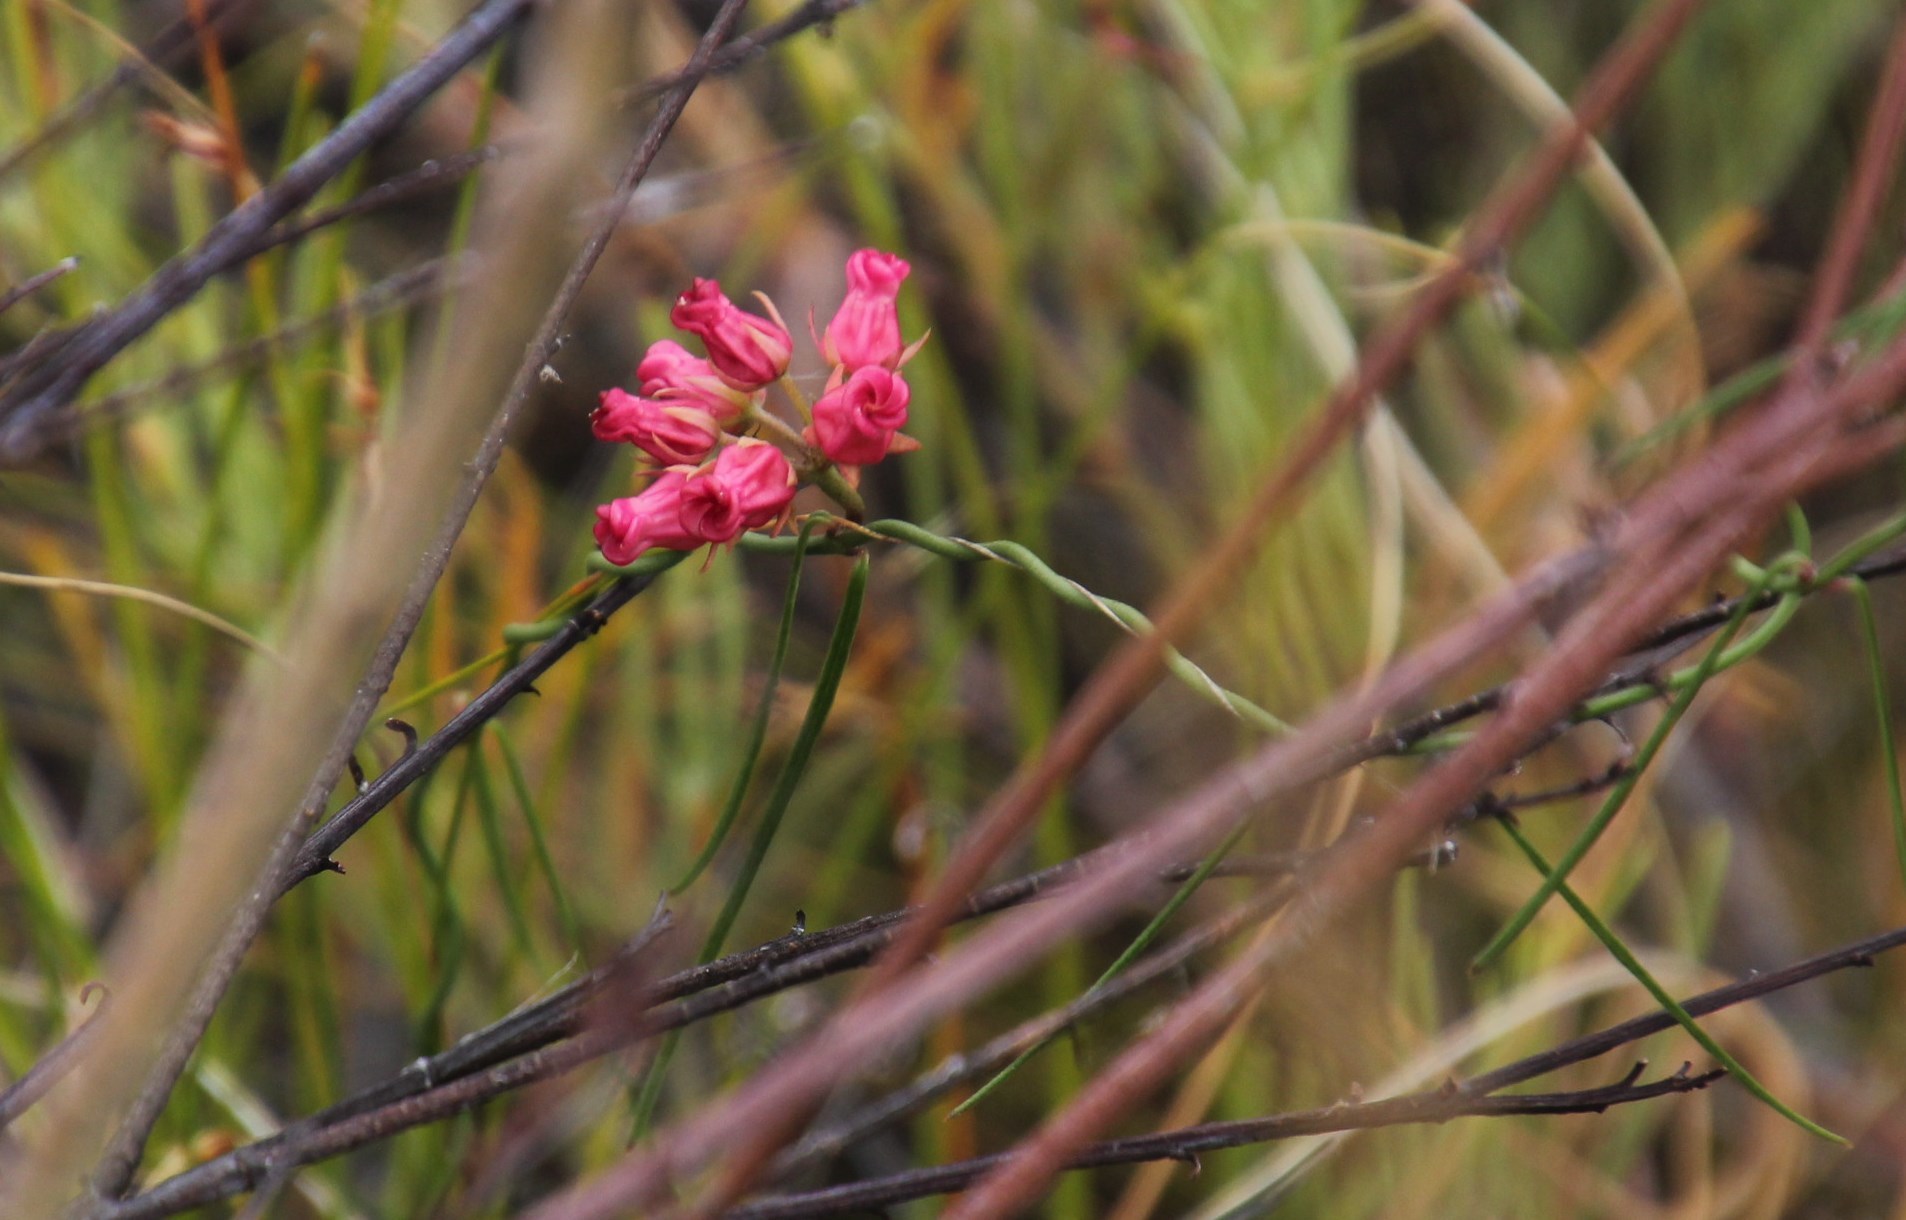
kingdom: Plantae
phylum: Tracheophyta
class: Magnoliopsida
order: Gentianales
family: Apocynaceae
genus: Microloma
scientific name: Microloma tenuifolium
